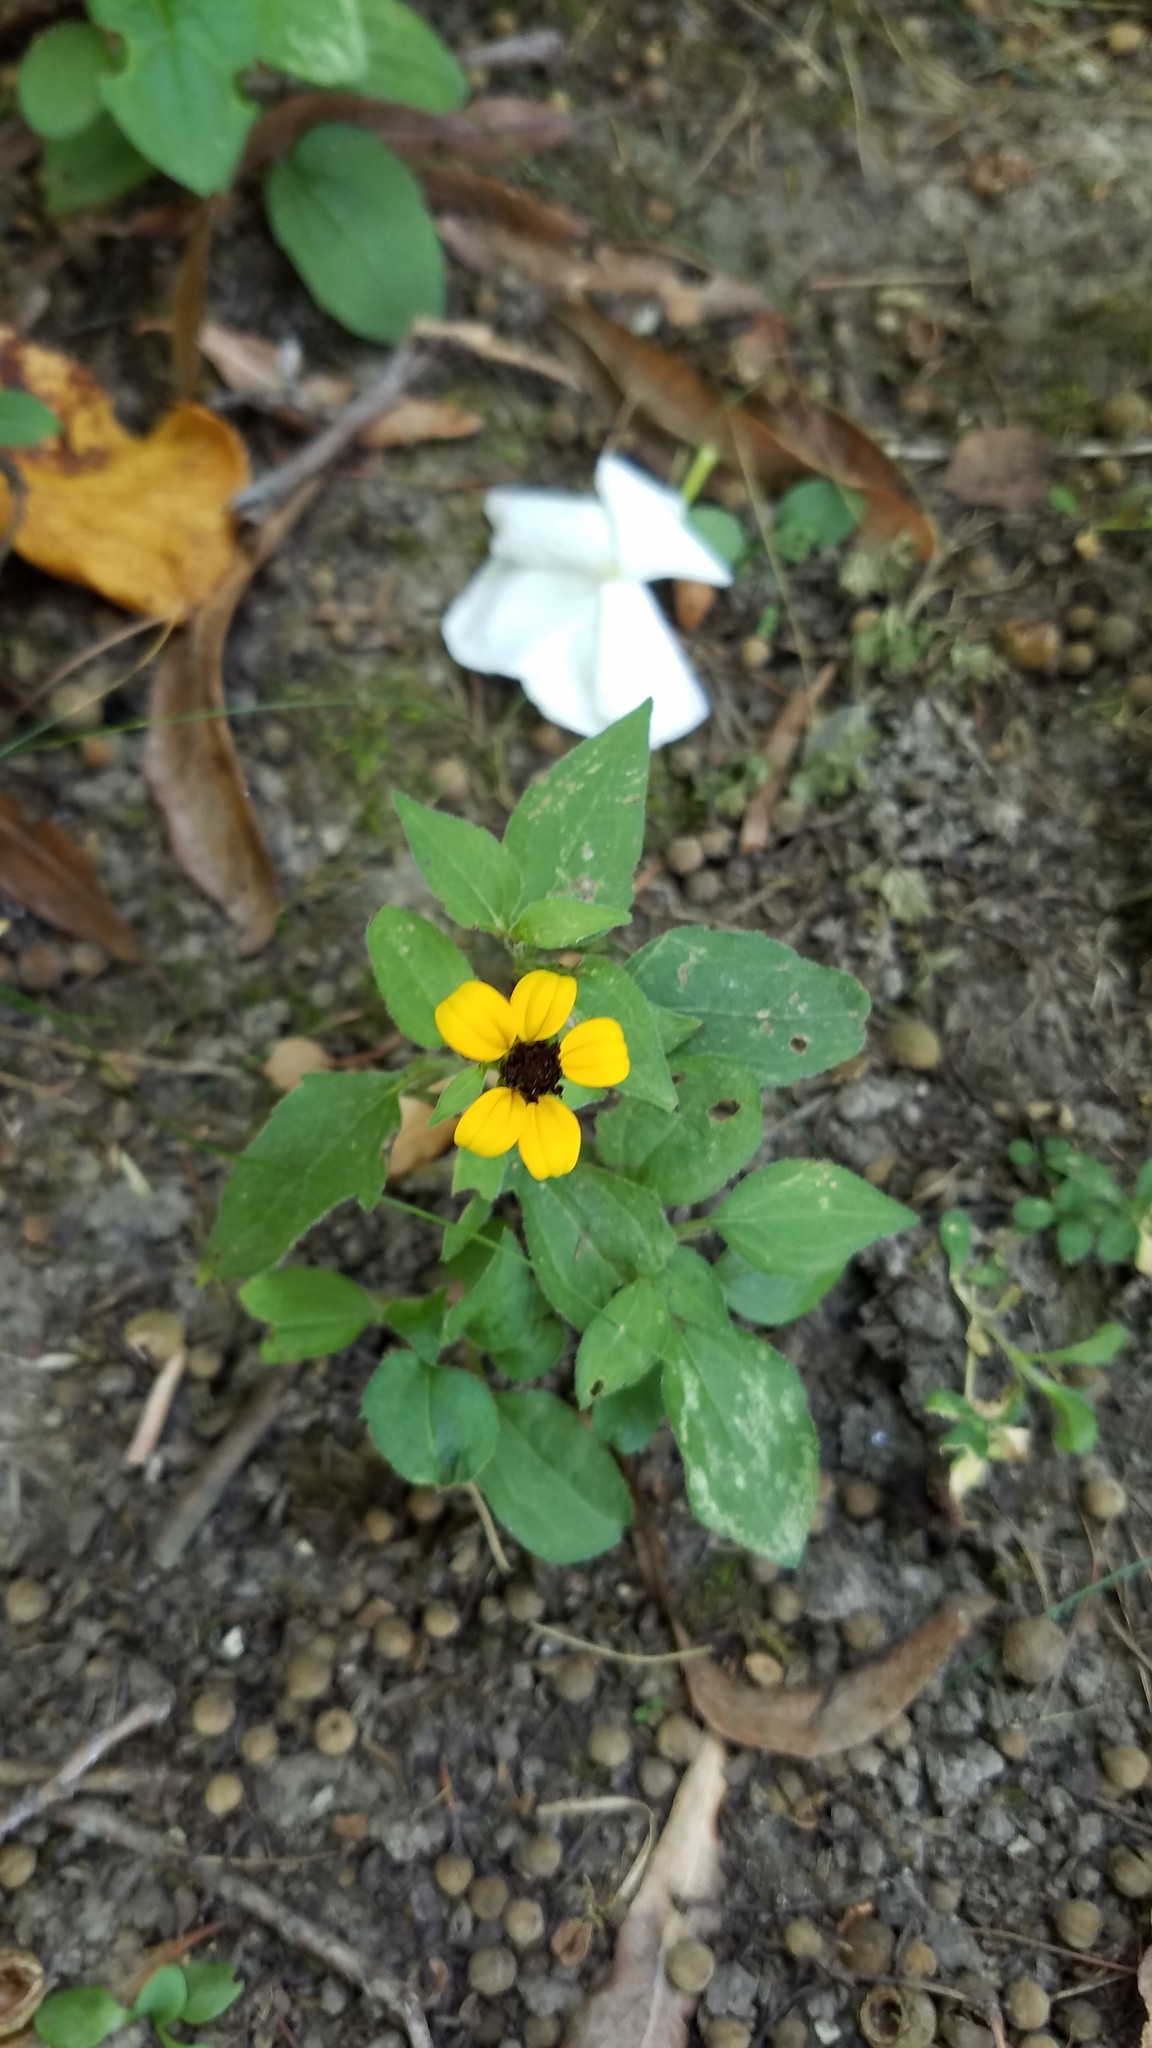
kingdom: Plantae
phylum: Tracheophyta
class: Magnoliopsida
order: Asterales
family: Asteraceae
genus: Rudbeckia
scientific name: Rudbeckia triloba
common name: Thin-leaved coneflower
